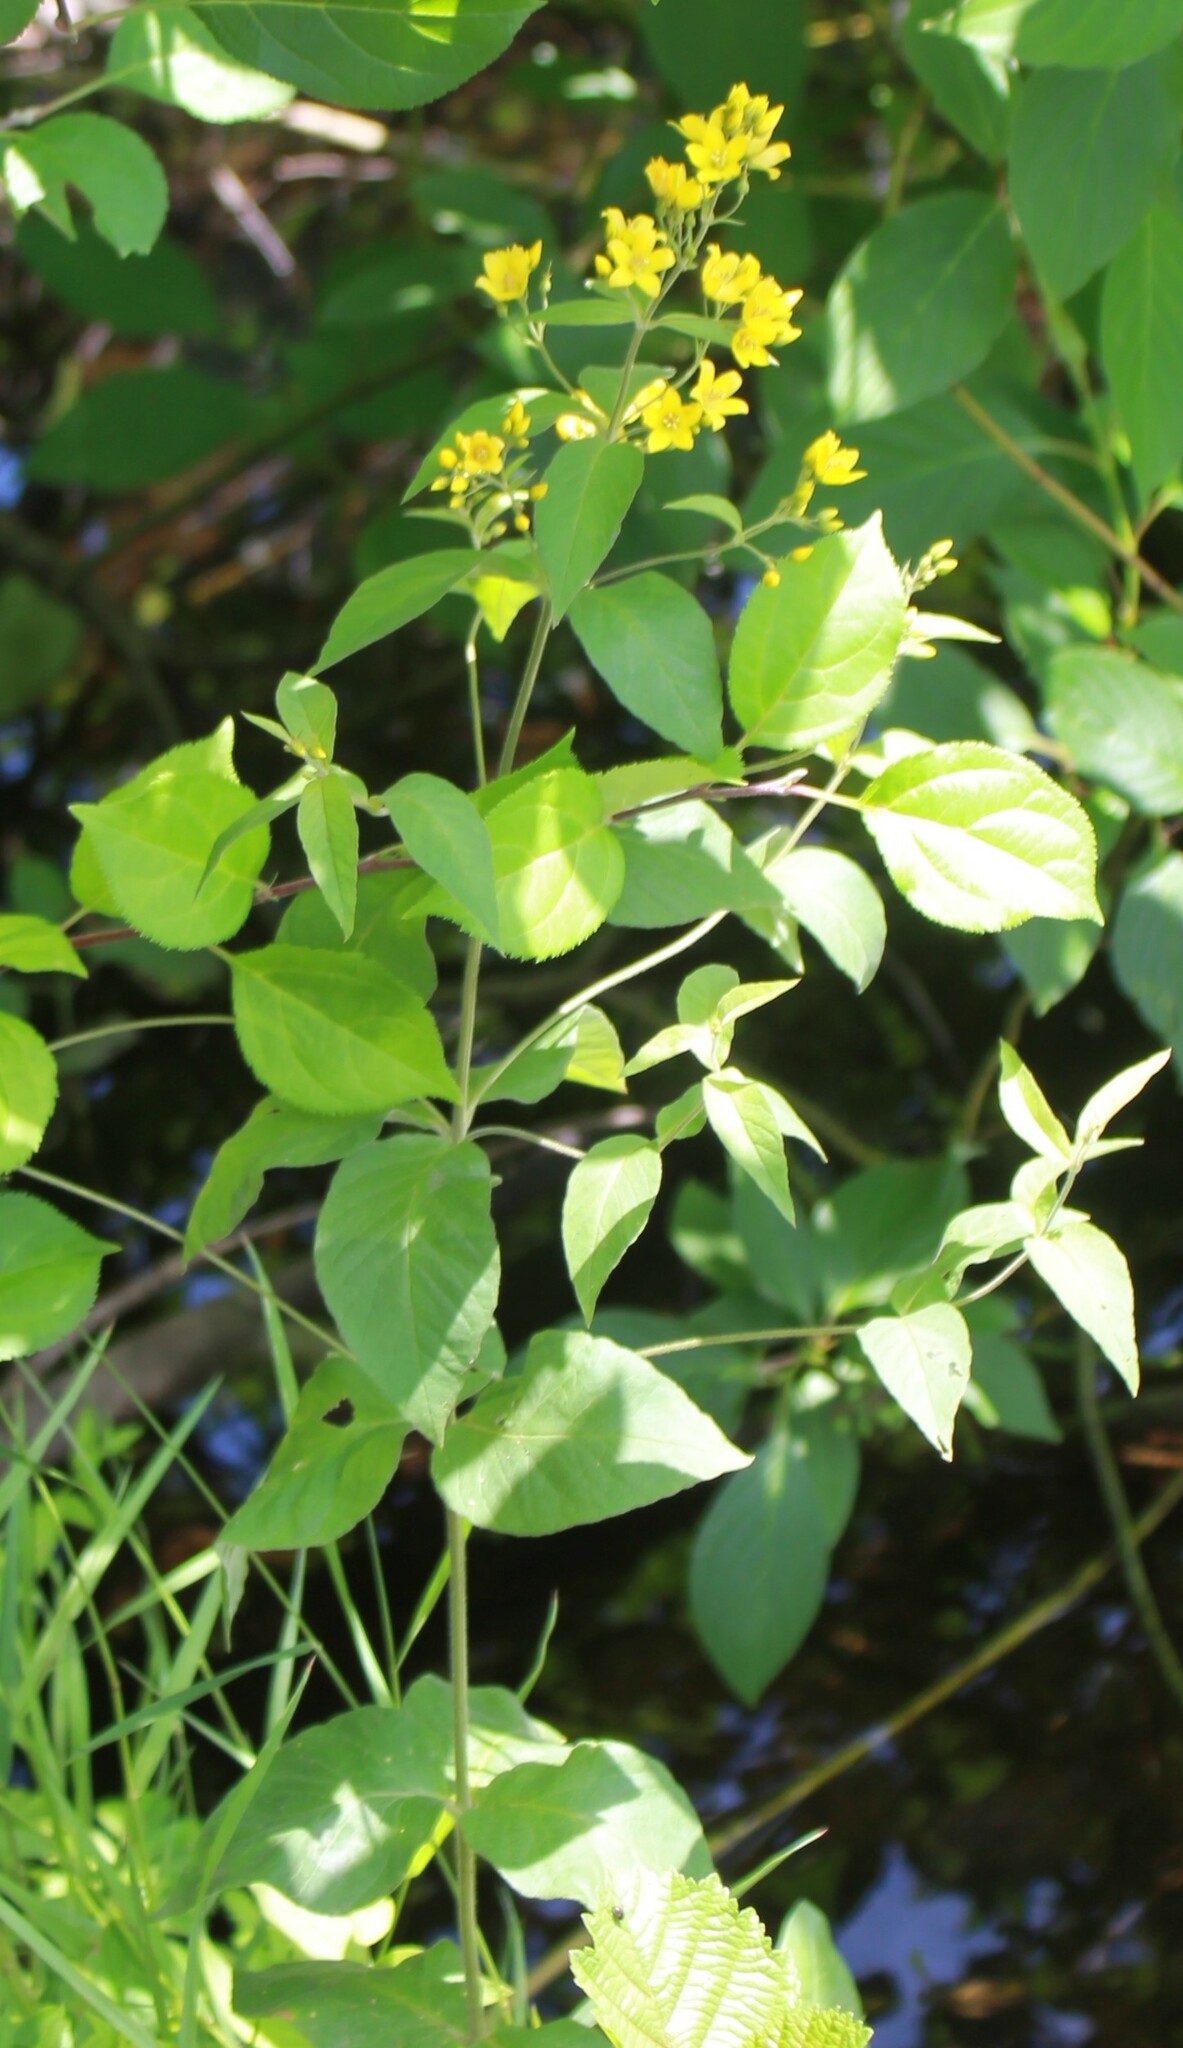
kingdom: Plantae
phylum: Tracheophyta
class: Magnoliopsida
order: Ericales
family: Primulaceae
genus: Lysimachia
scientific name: Lysimachia vulgaris
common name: Yellow loosestrife
